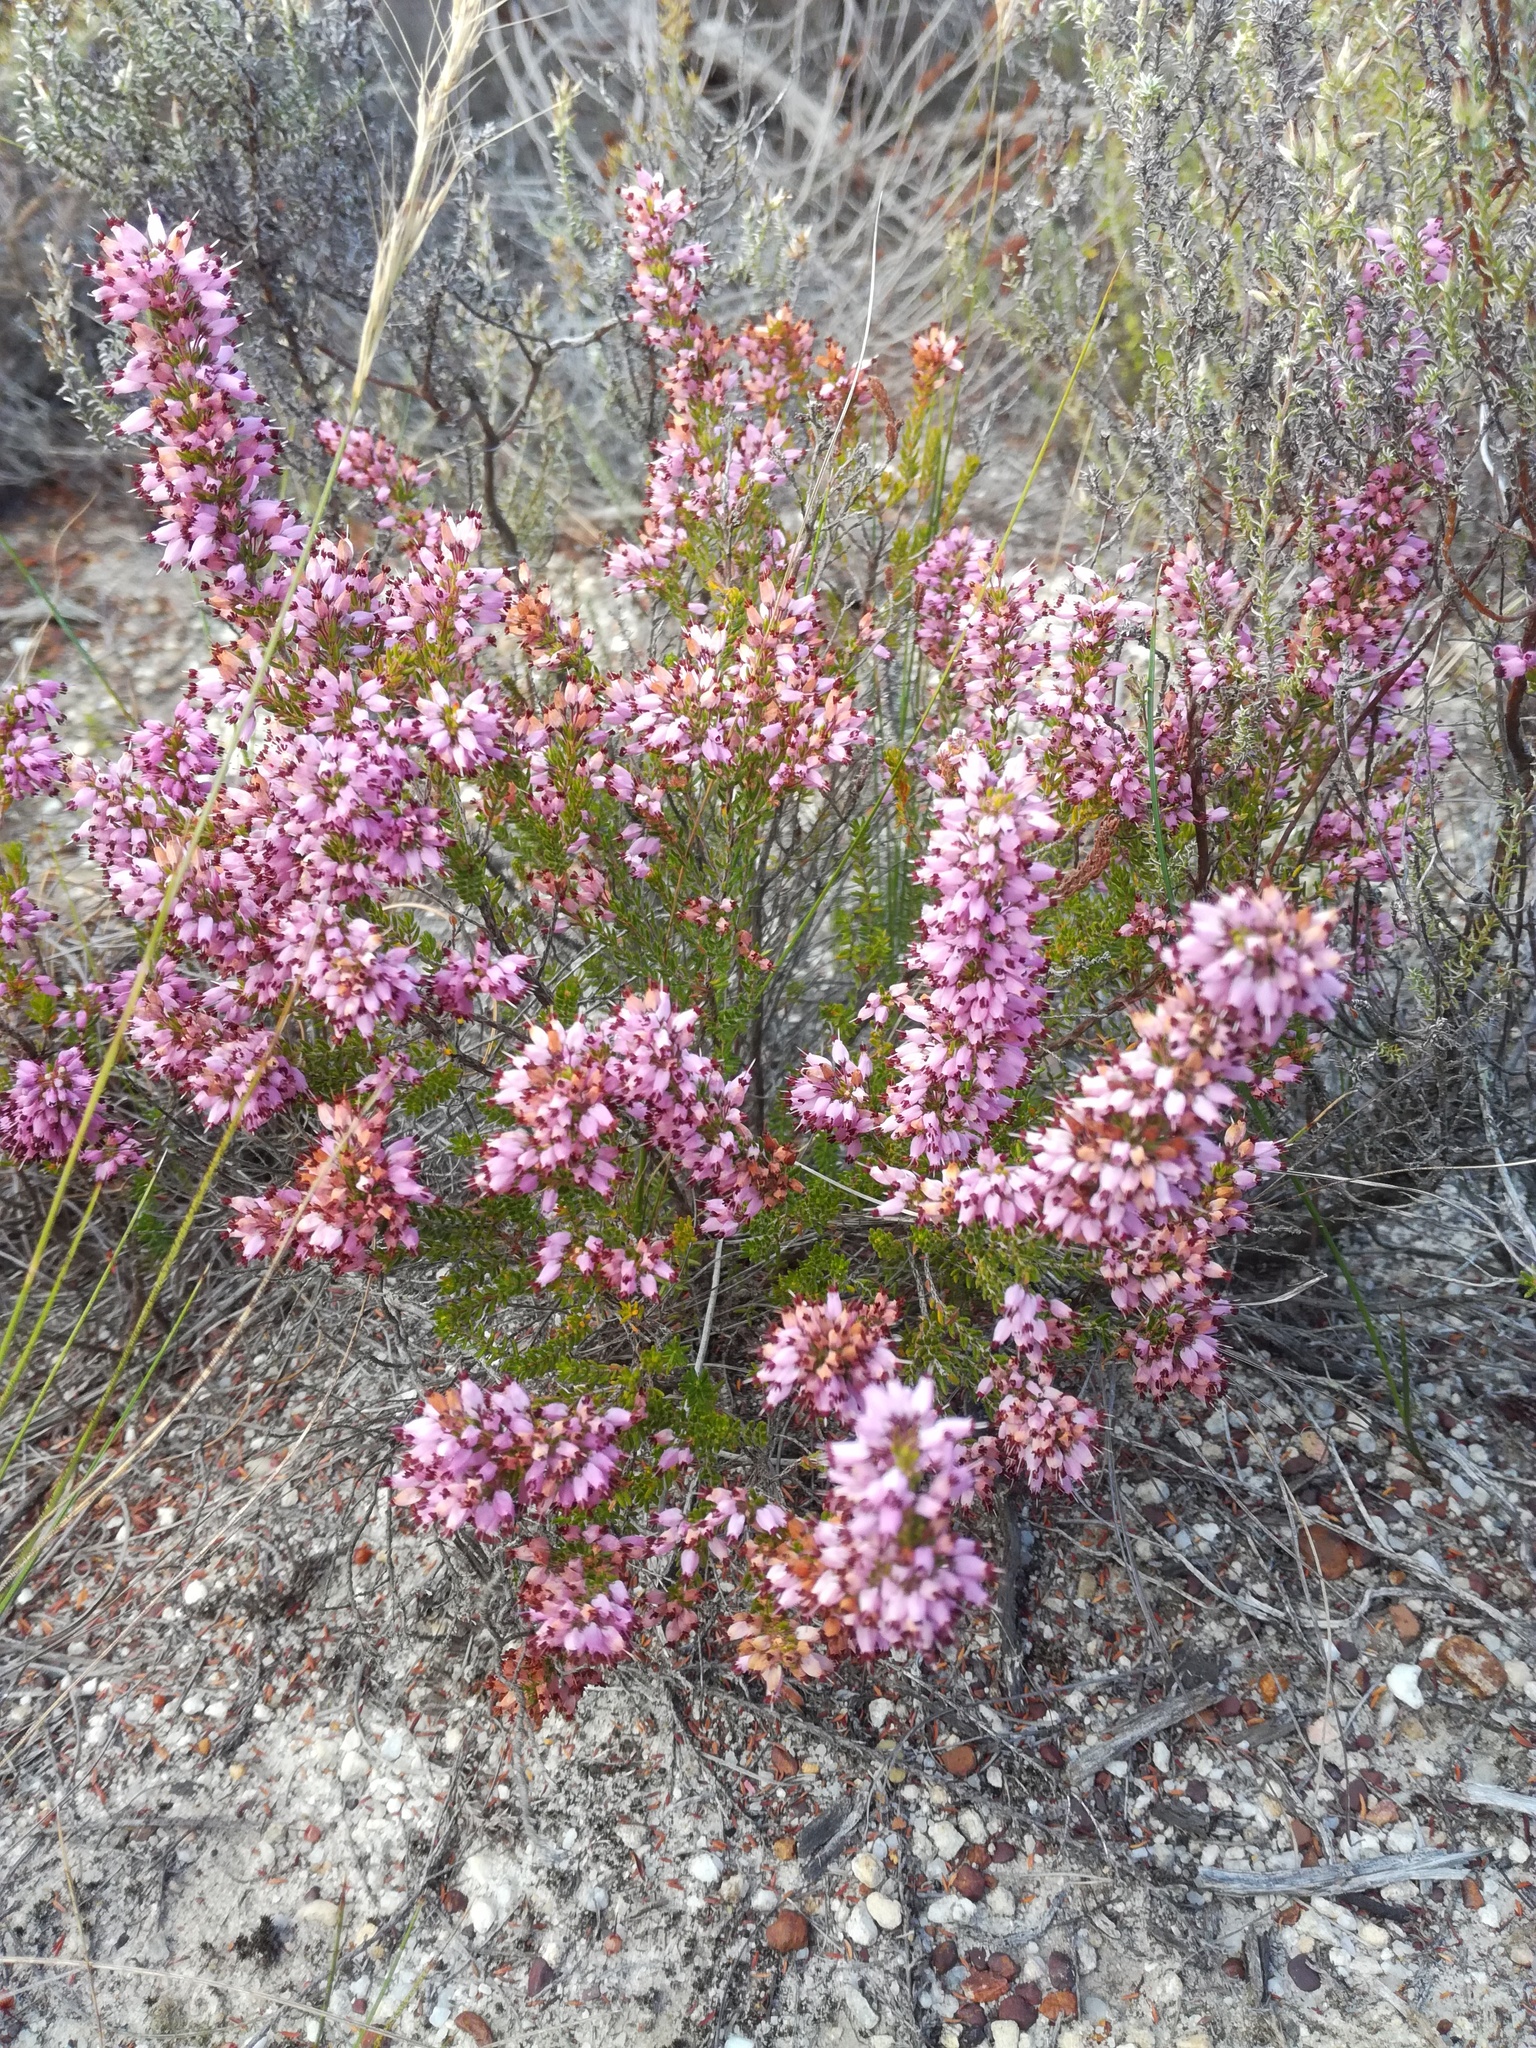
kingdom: Plantae
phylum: Tracheophyta
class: Magnoliopsida
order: Ericales
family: Ericaceae
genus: Erica
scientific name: Erica nudiflora
